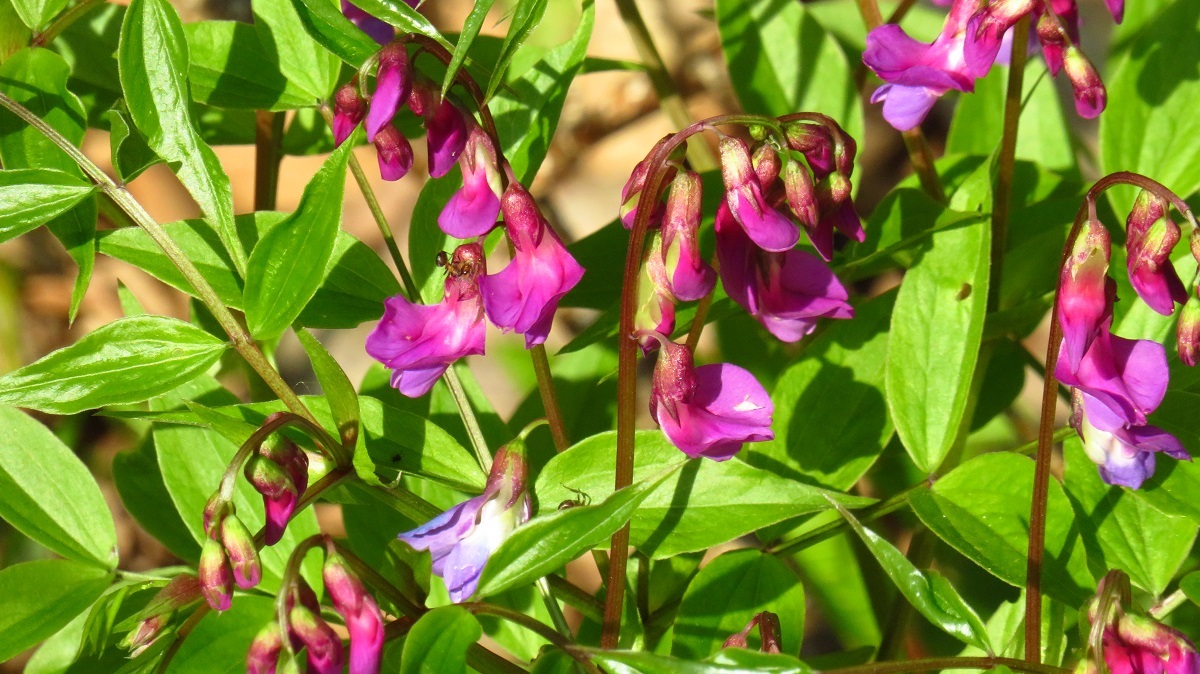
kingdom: Plantae
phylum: Tracheophyta
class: Magnoliopsida
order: Fabales
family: Fabaceae
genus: Lathyrus
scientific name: Lathyrus vernus
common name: Spring pea
